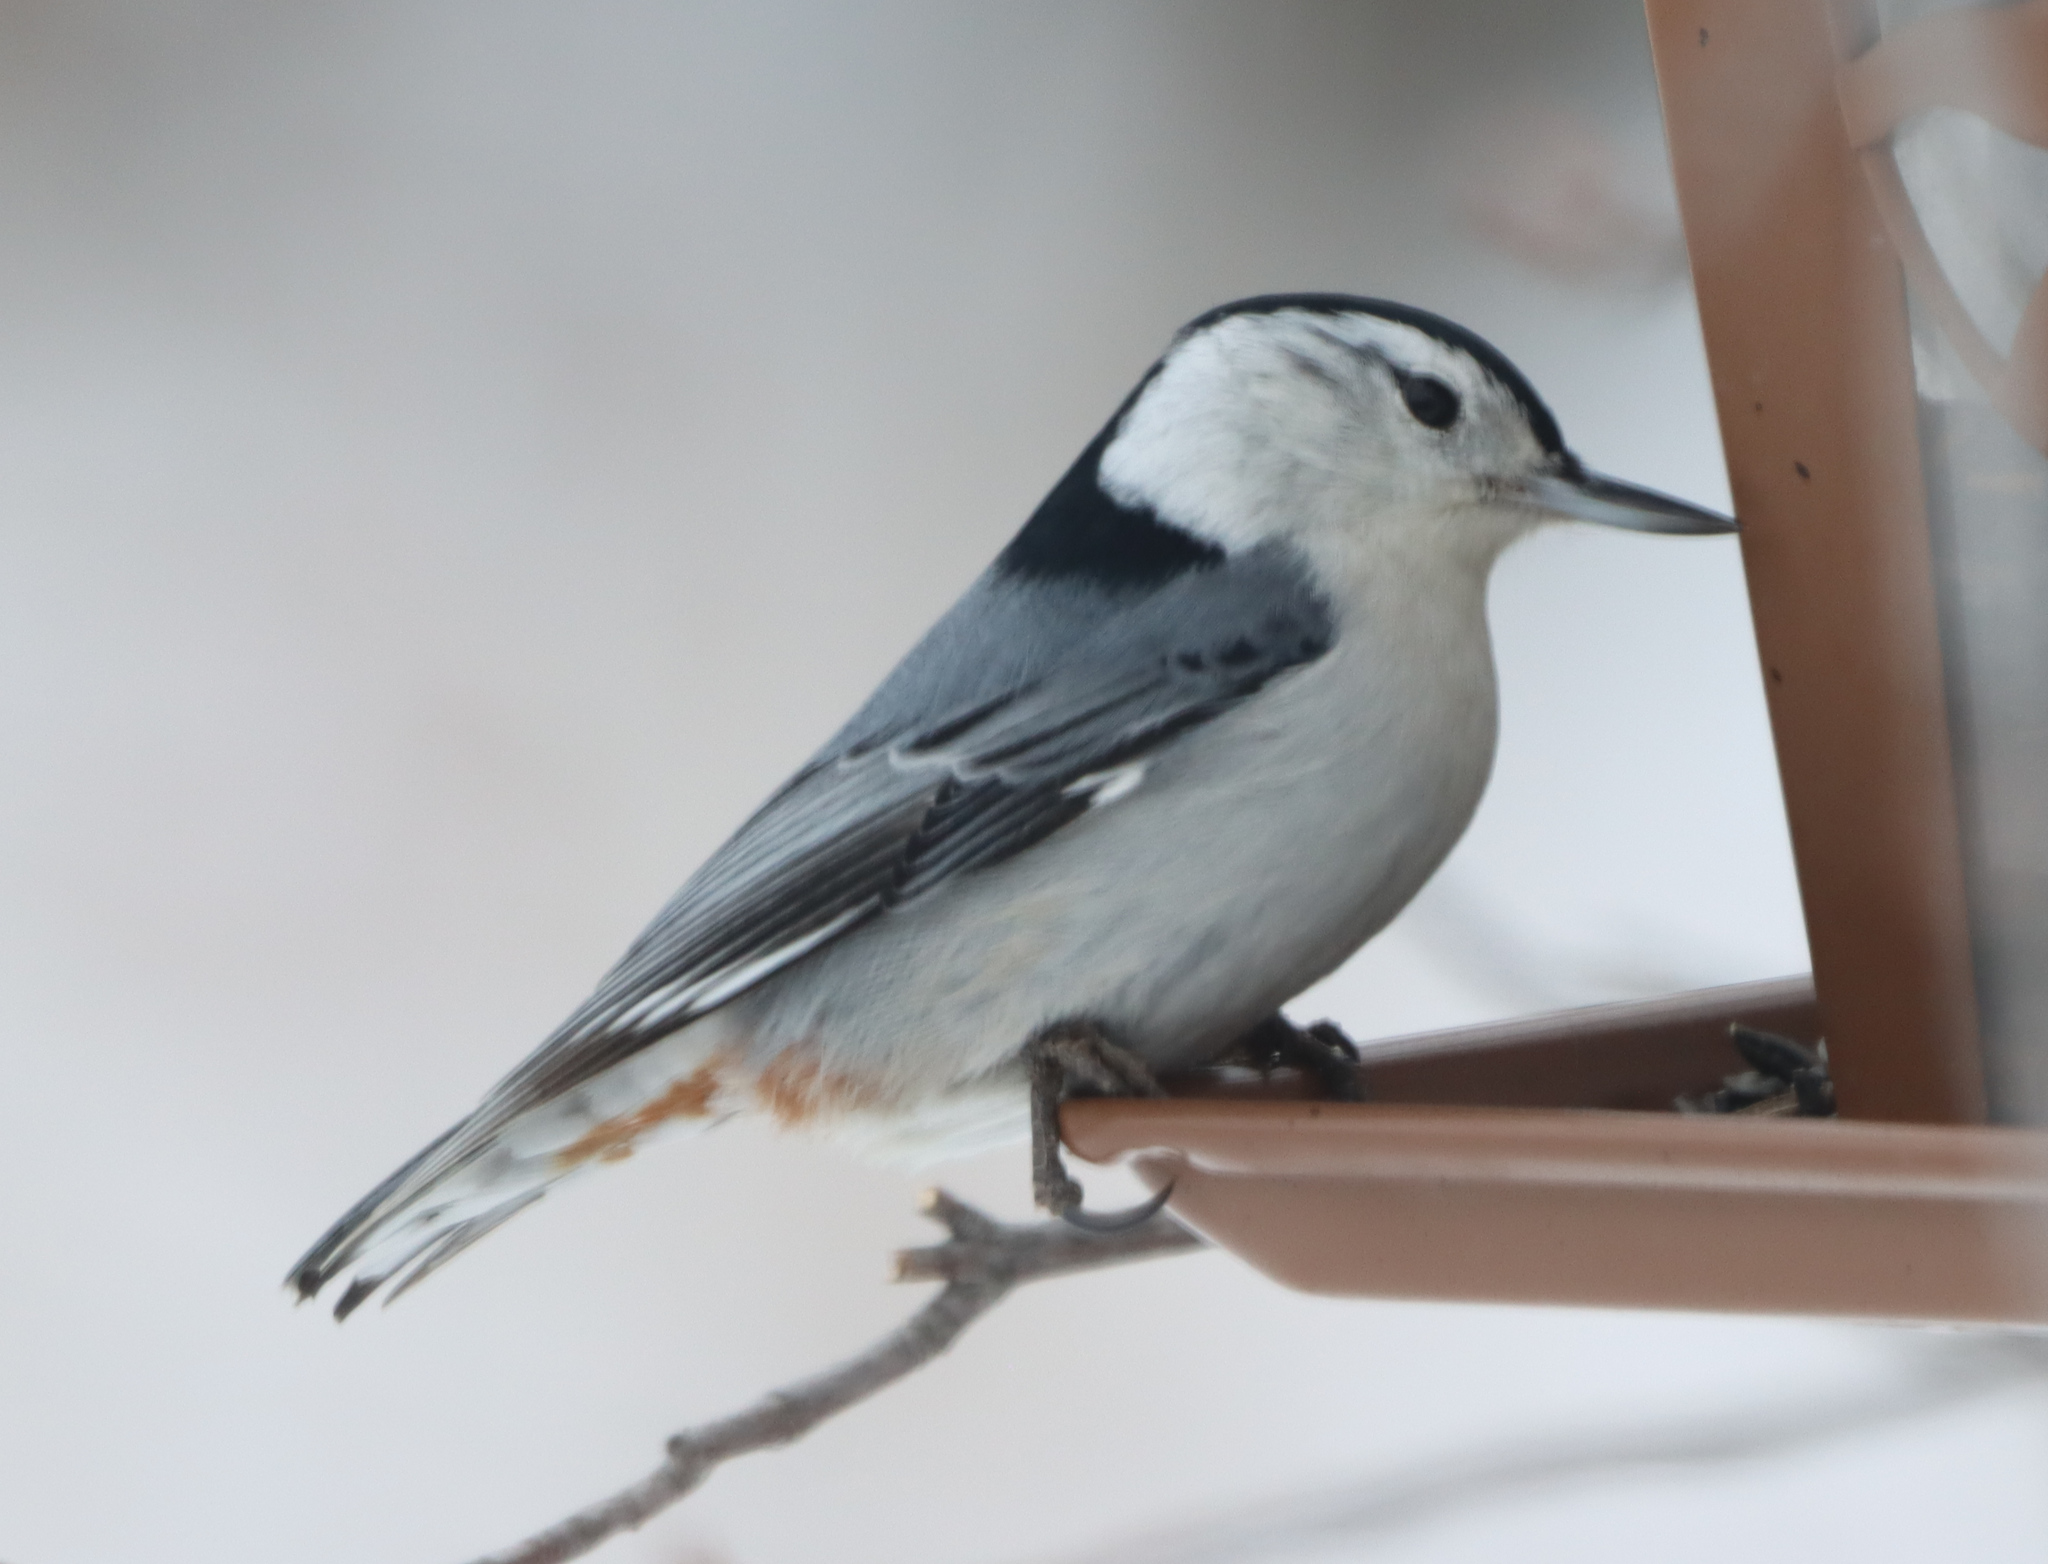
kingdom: Animalia
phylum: Chordata
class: Aves
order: Passeriformes
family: Sittidae
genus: Sitta
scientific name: Sitta carolinensis
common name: White-breasted nuthatch
